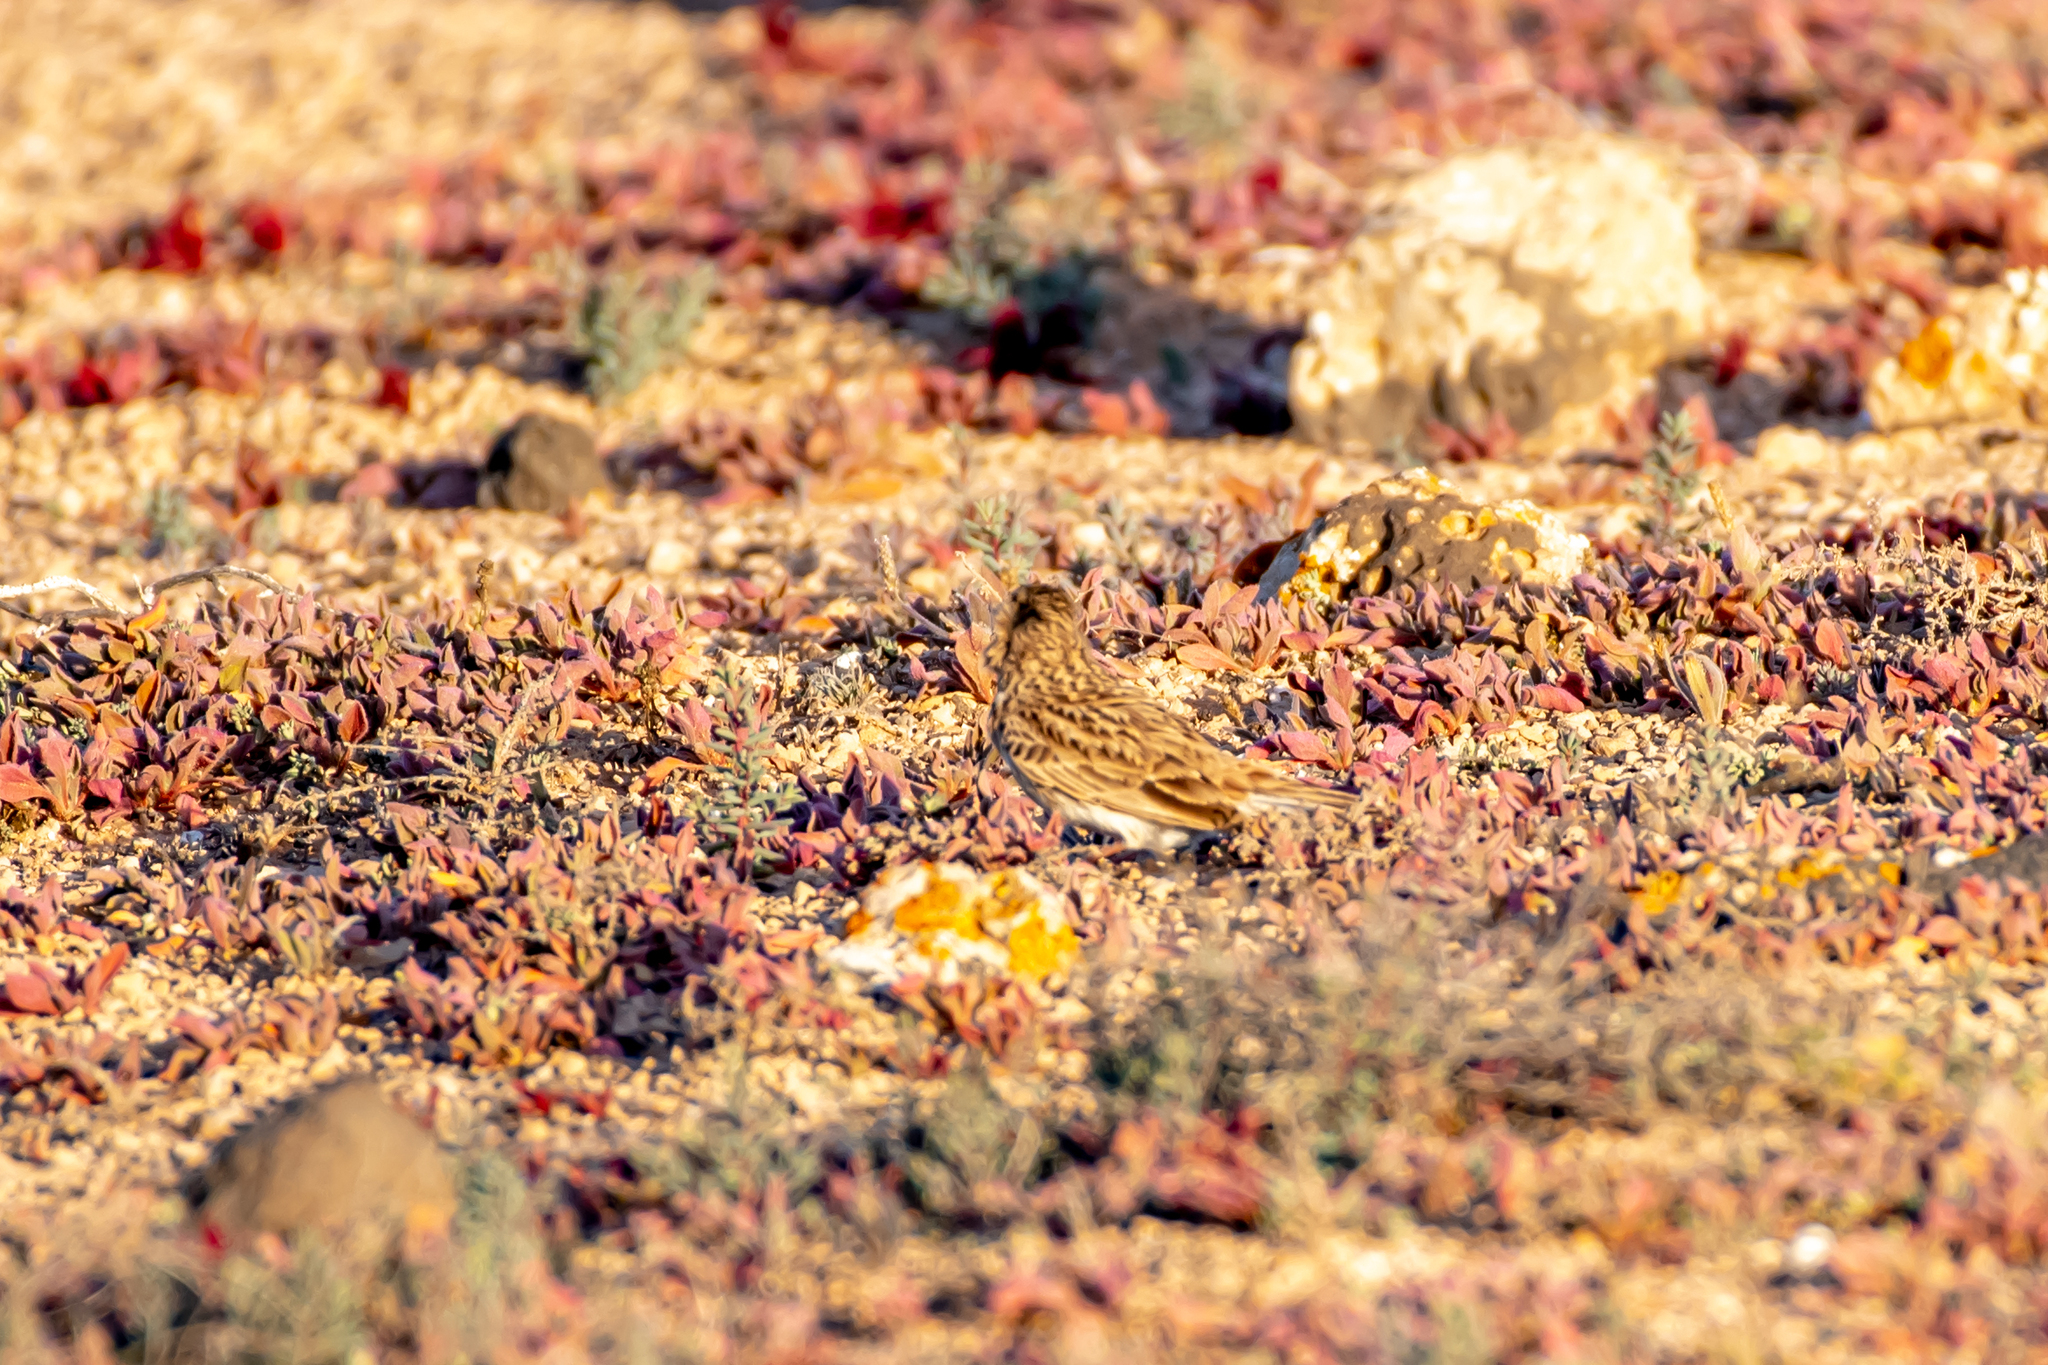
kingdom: Animalia
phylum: Chordata
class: Aves
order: Passeriformes
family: Alaudidae
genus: Calandrella
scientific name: Calandrella rufescens
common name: Lesser short-toed lark
